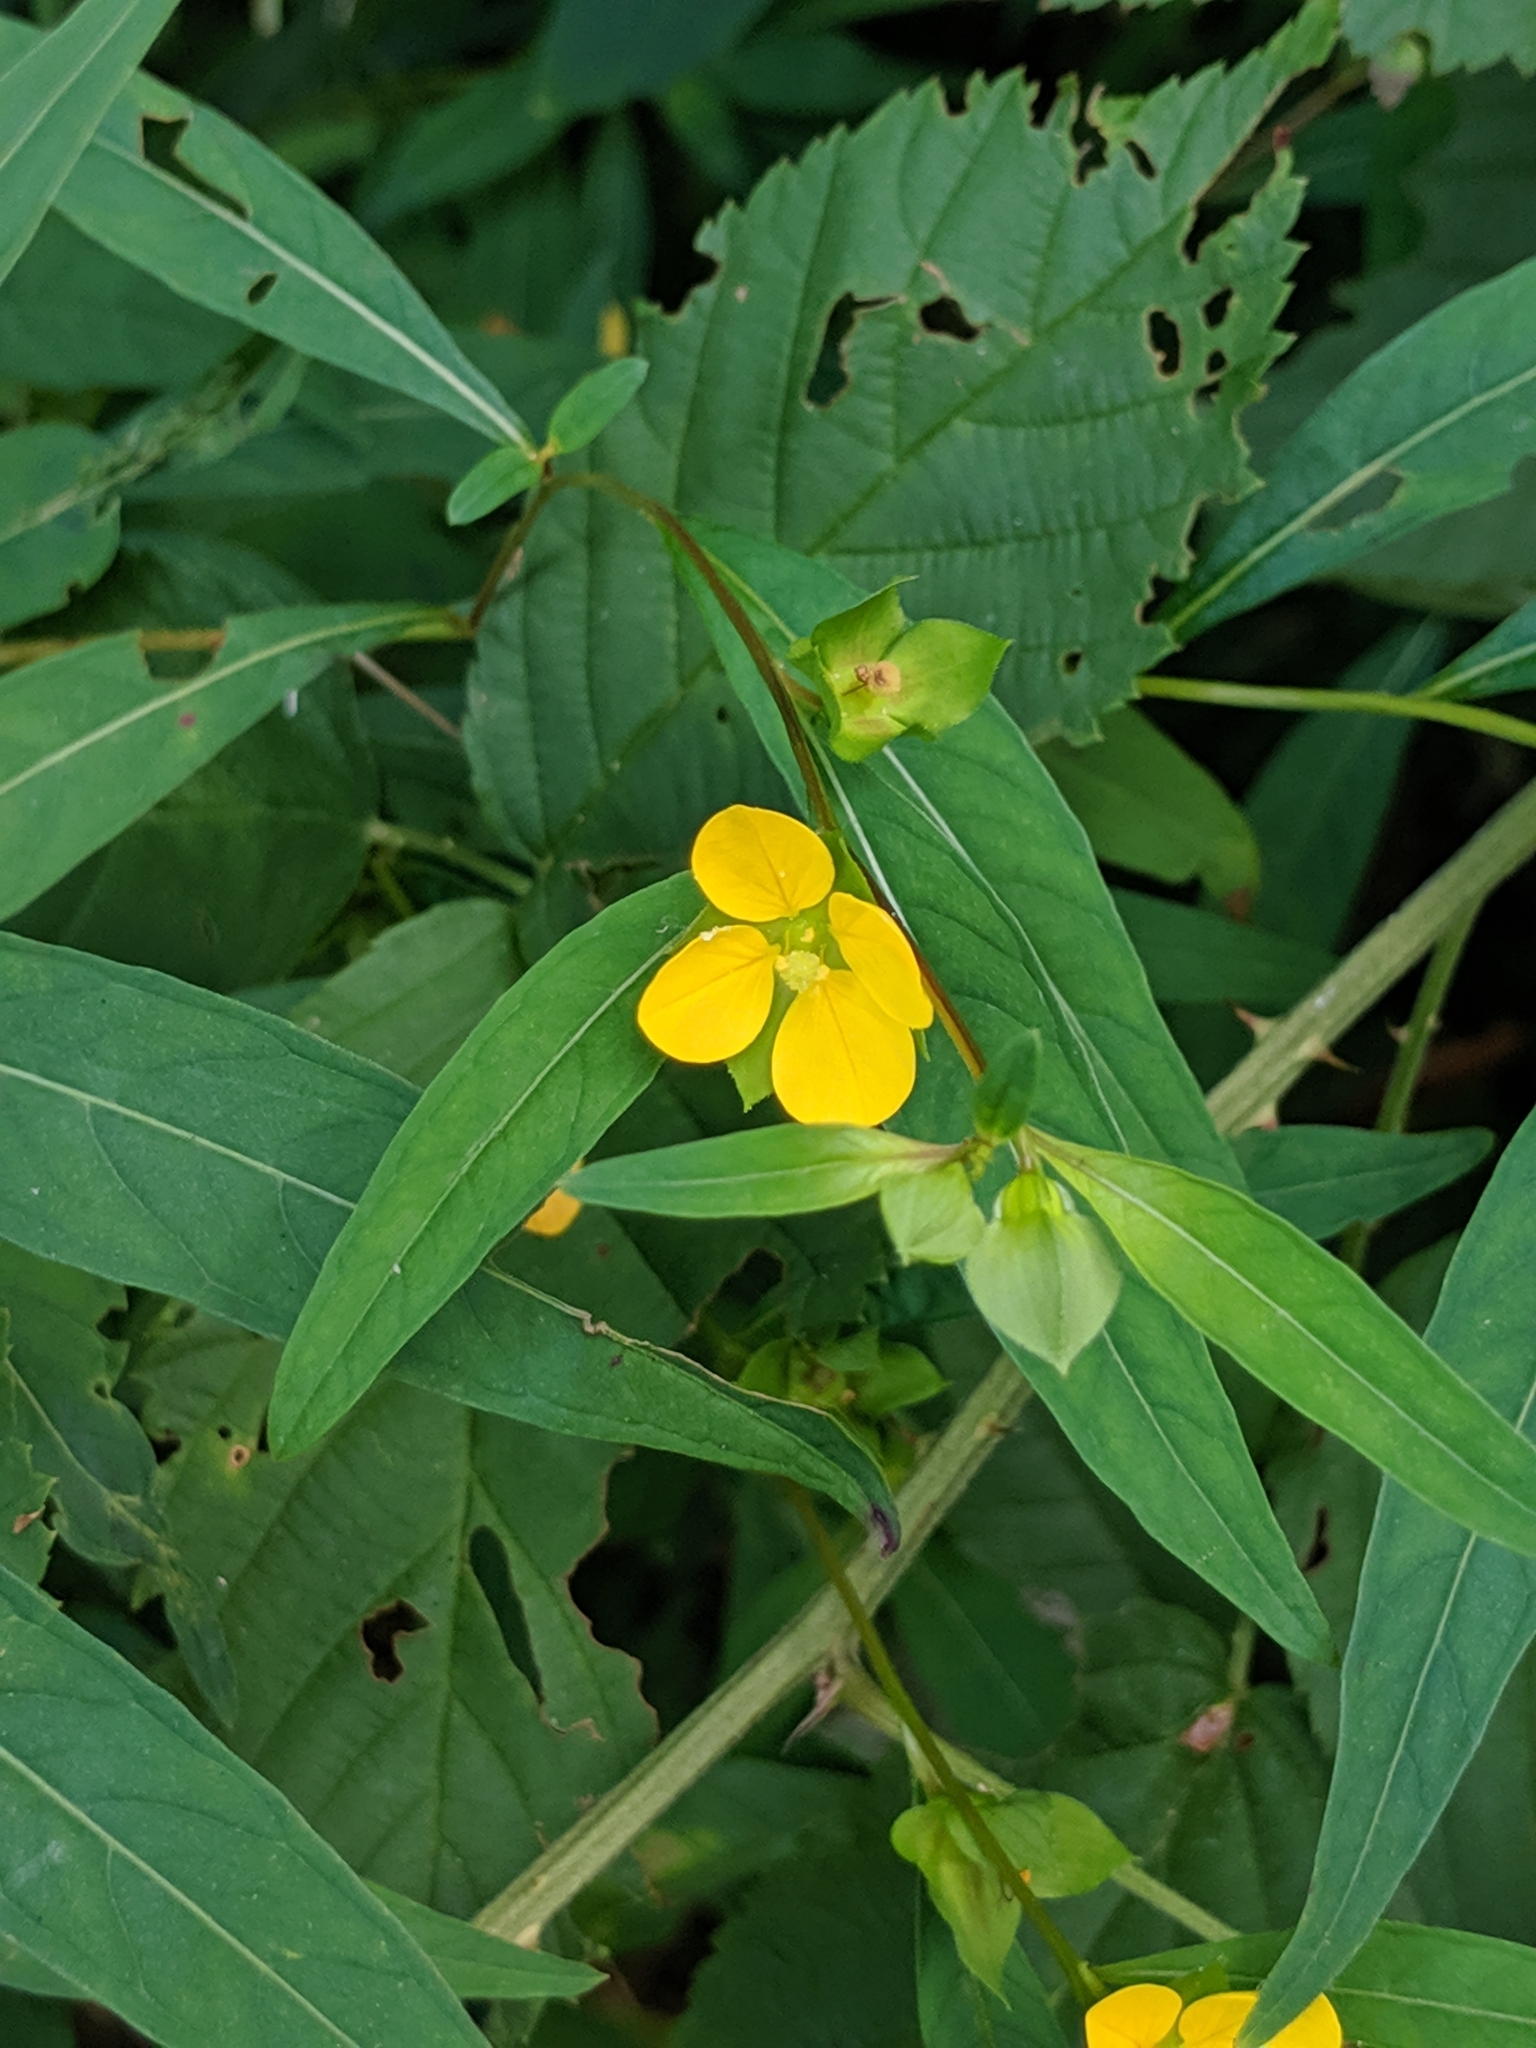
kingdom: Plantae
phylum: Tracheophyta
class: Magnoliopsida
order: Myrtales
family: Onagraceae
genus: Ludwigia
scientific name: Ludwigia alternifolia
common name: Rattlebox
